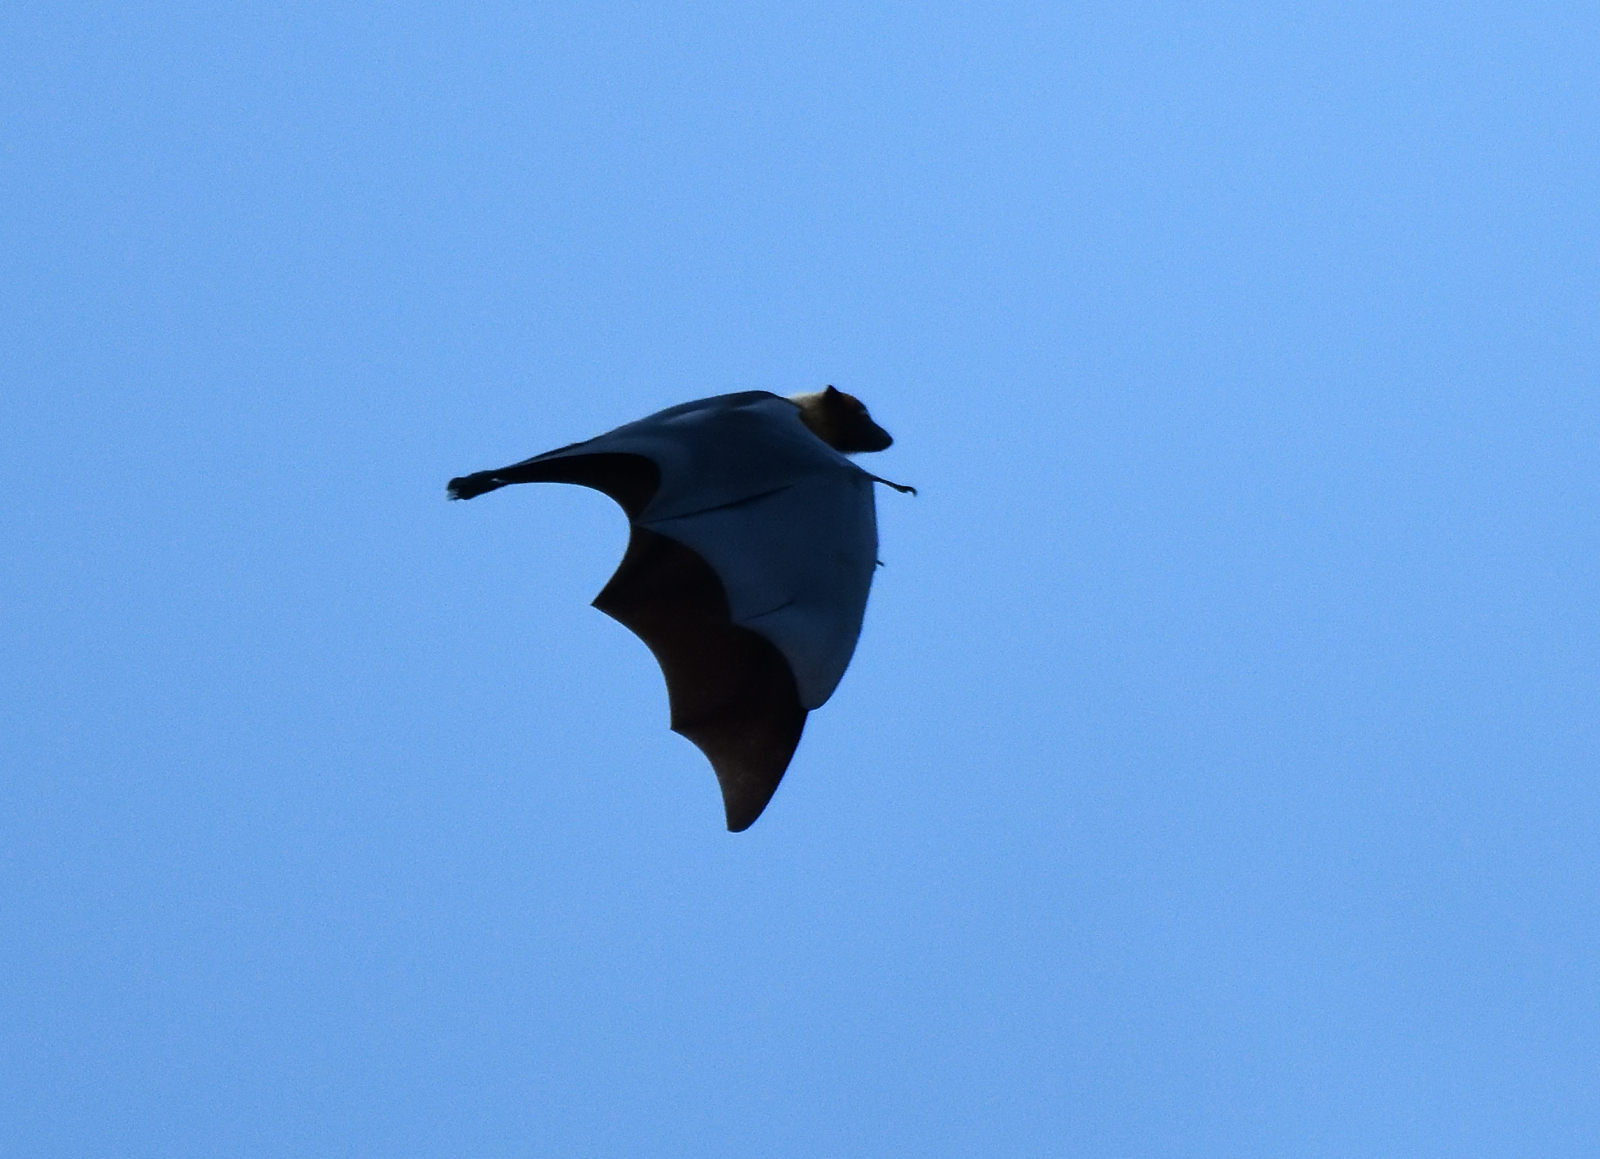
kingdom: Animalia
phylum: Chordata
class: Mammalia
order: Chiroptera
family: Pteropodidae
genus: Pteropus
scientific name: Pteropus vampyrus
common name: Large flying fox
